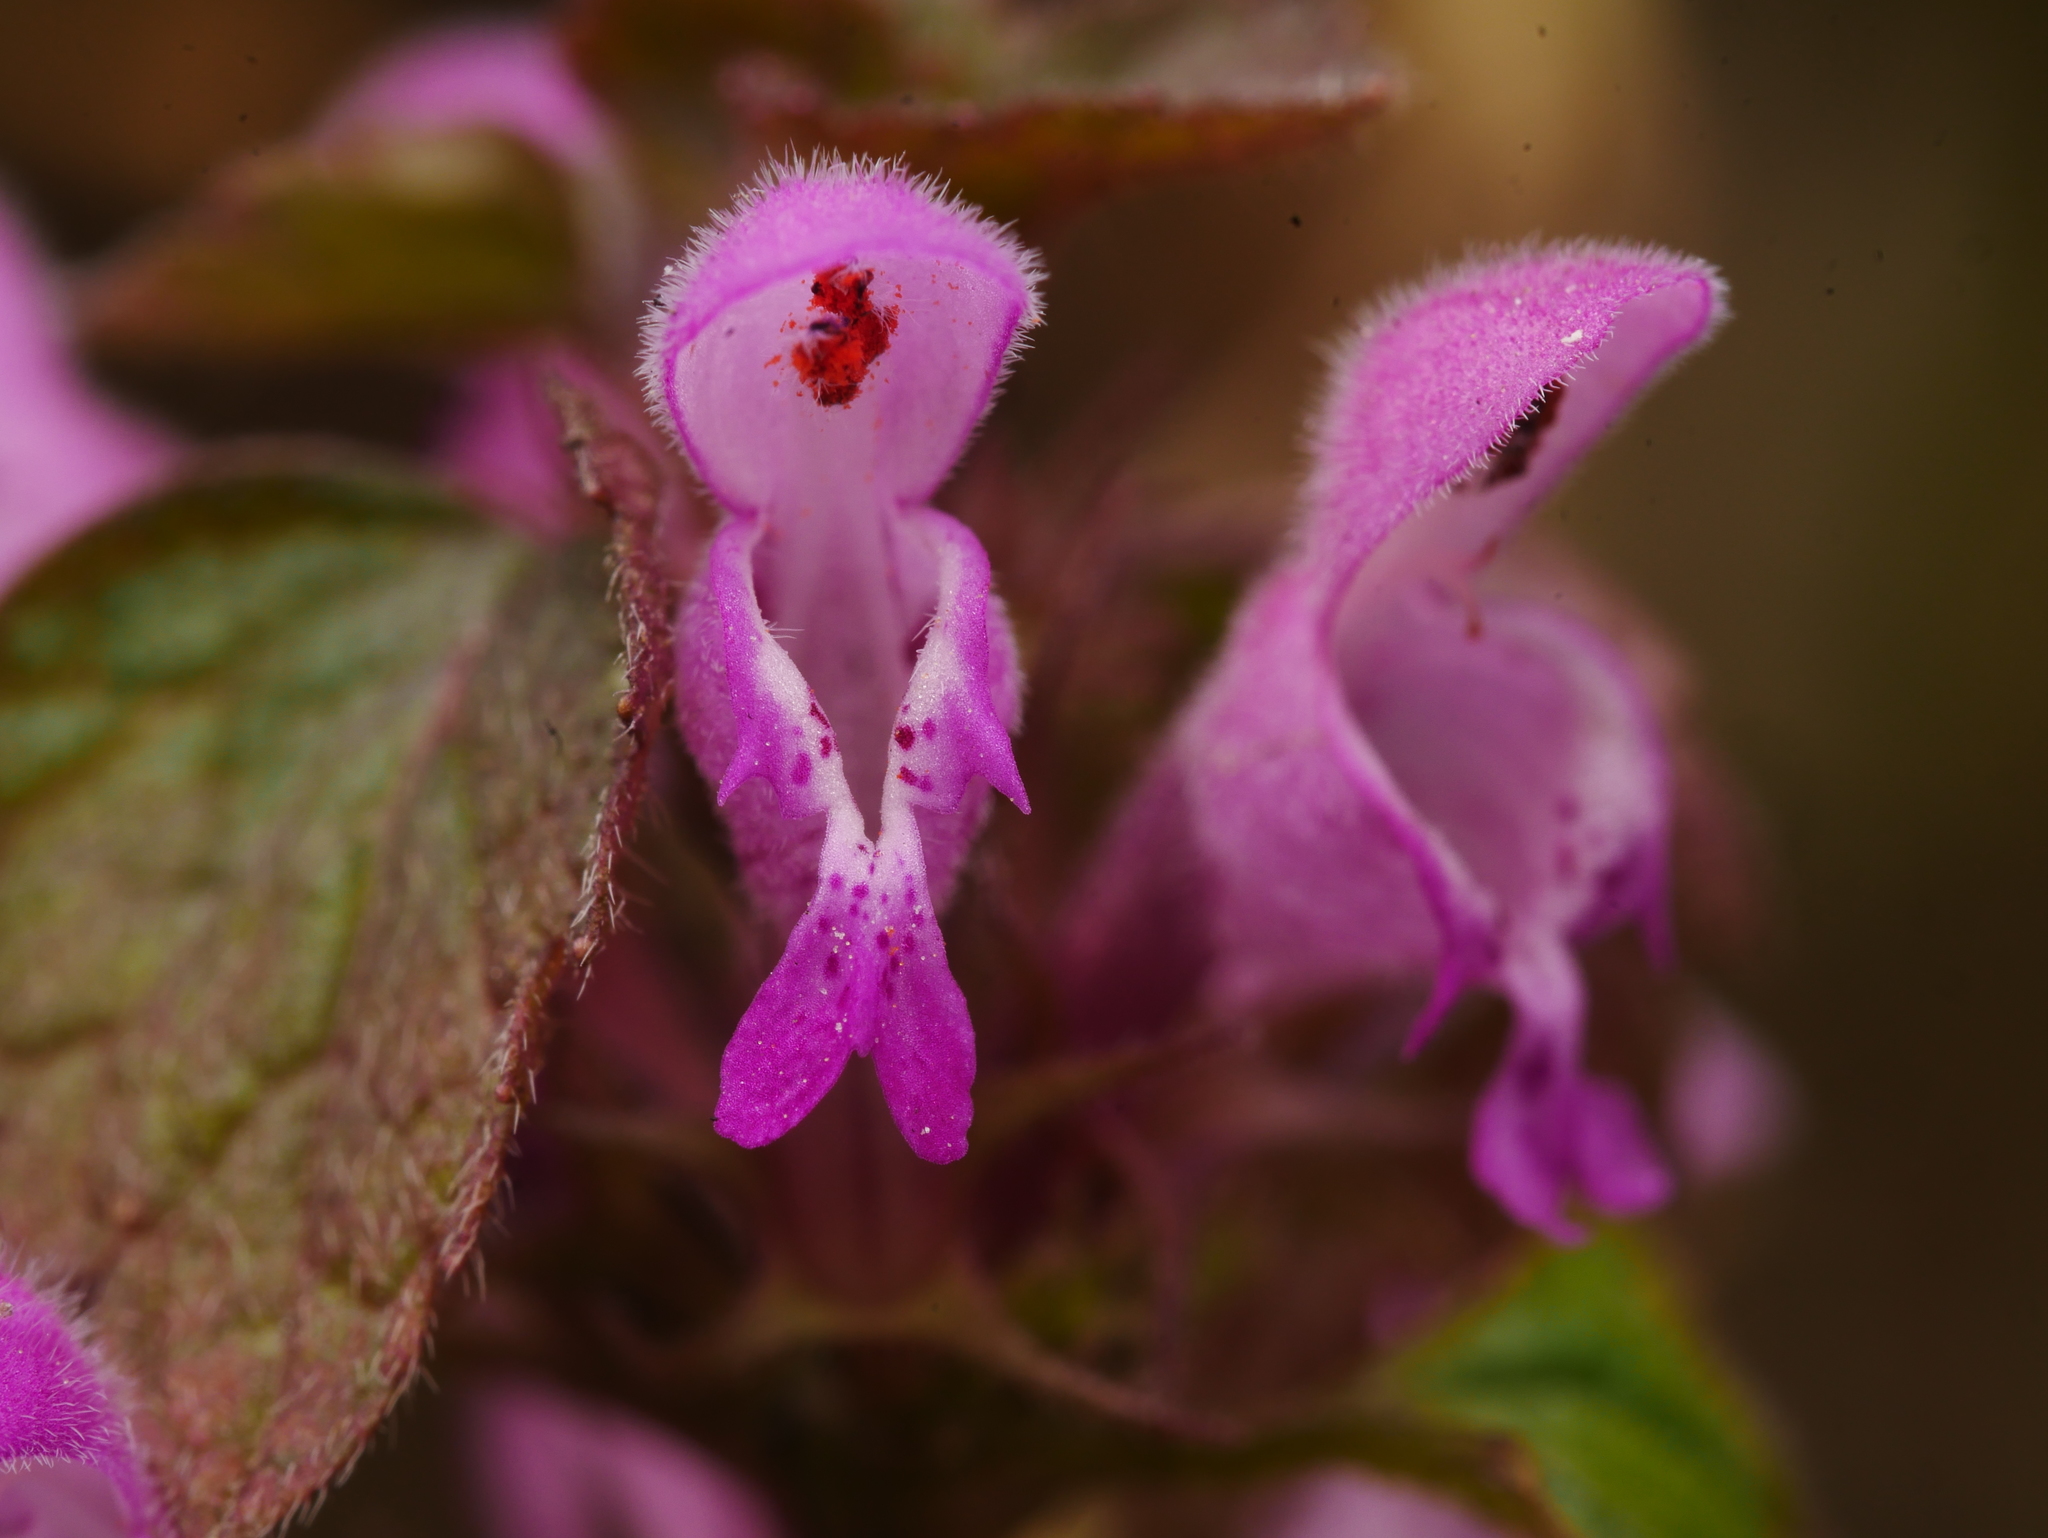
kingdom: Plantae
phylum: Tracheophyta
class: Magnoliopsida
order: Lamiales
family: Lamiaceae
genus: Lamium
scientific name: Lamium purpureum
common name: Red dead-nettle
